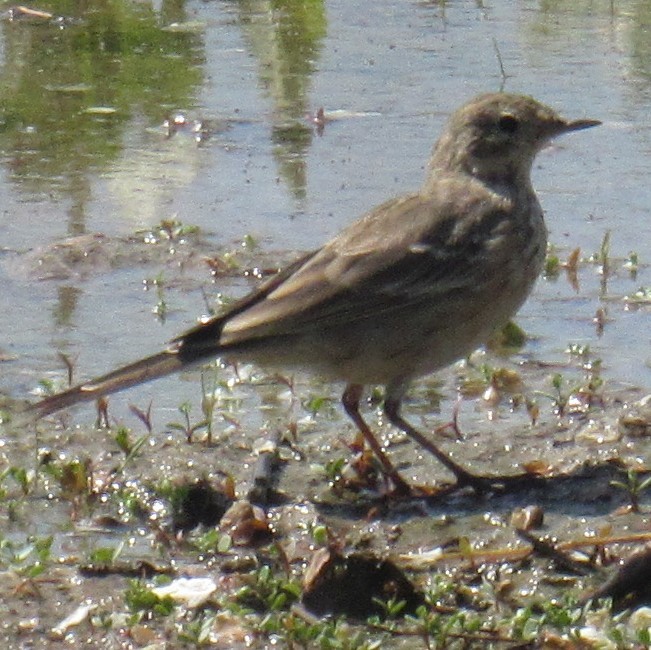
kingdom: Animalia
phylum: Chordata
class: Aves
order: Passeriformes
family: Motacillidae
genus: Anthus
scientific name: Anthus rubescens
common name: Buff-bellied pipit
